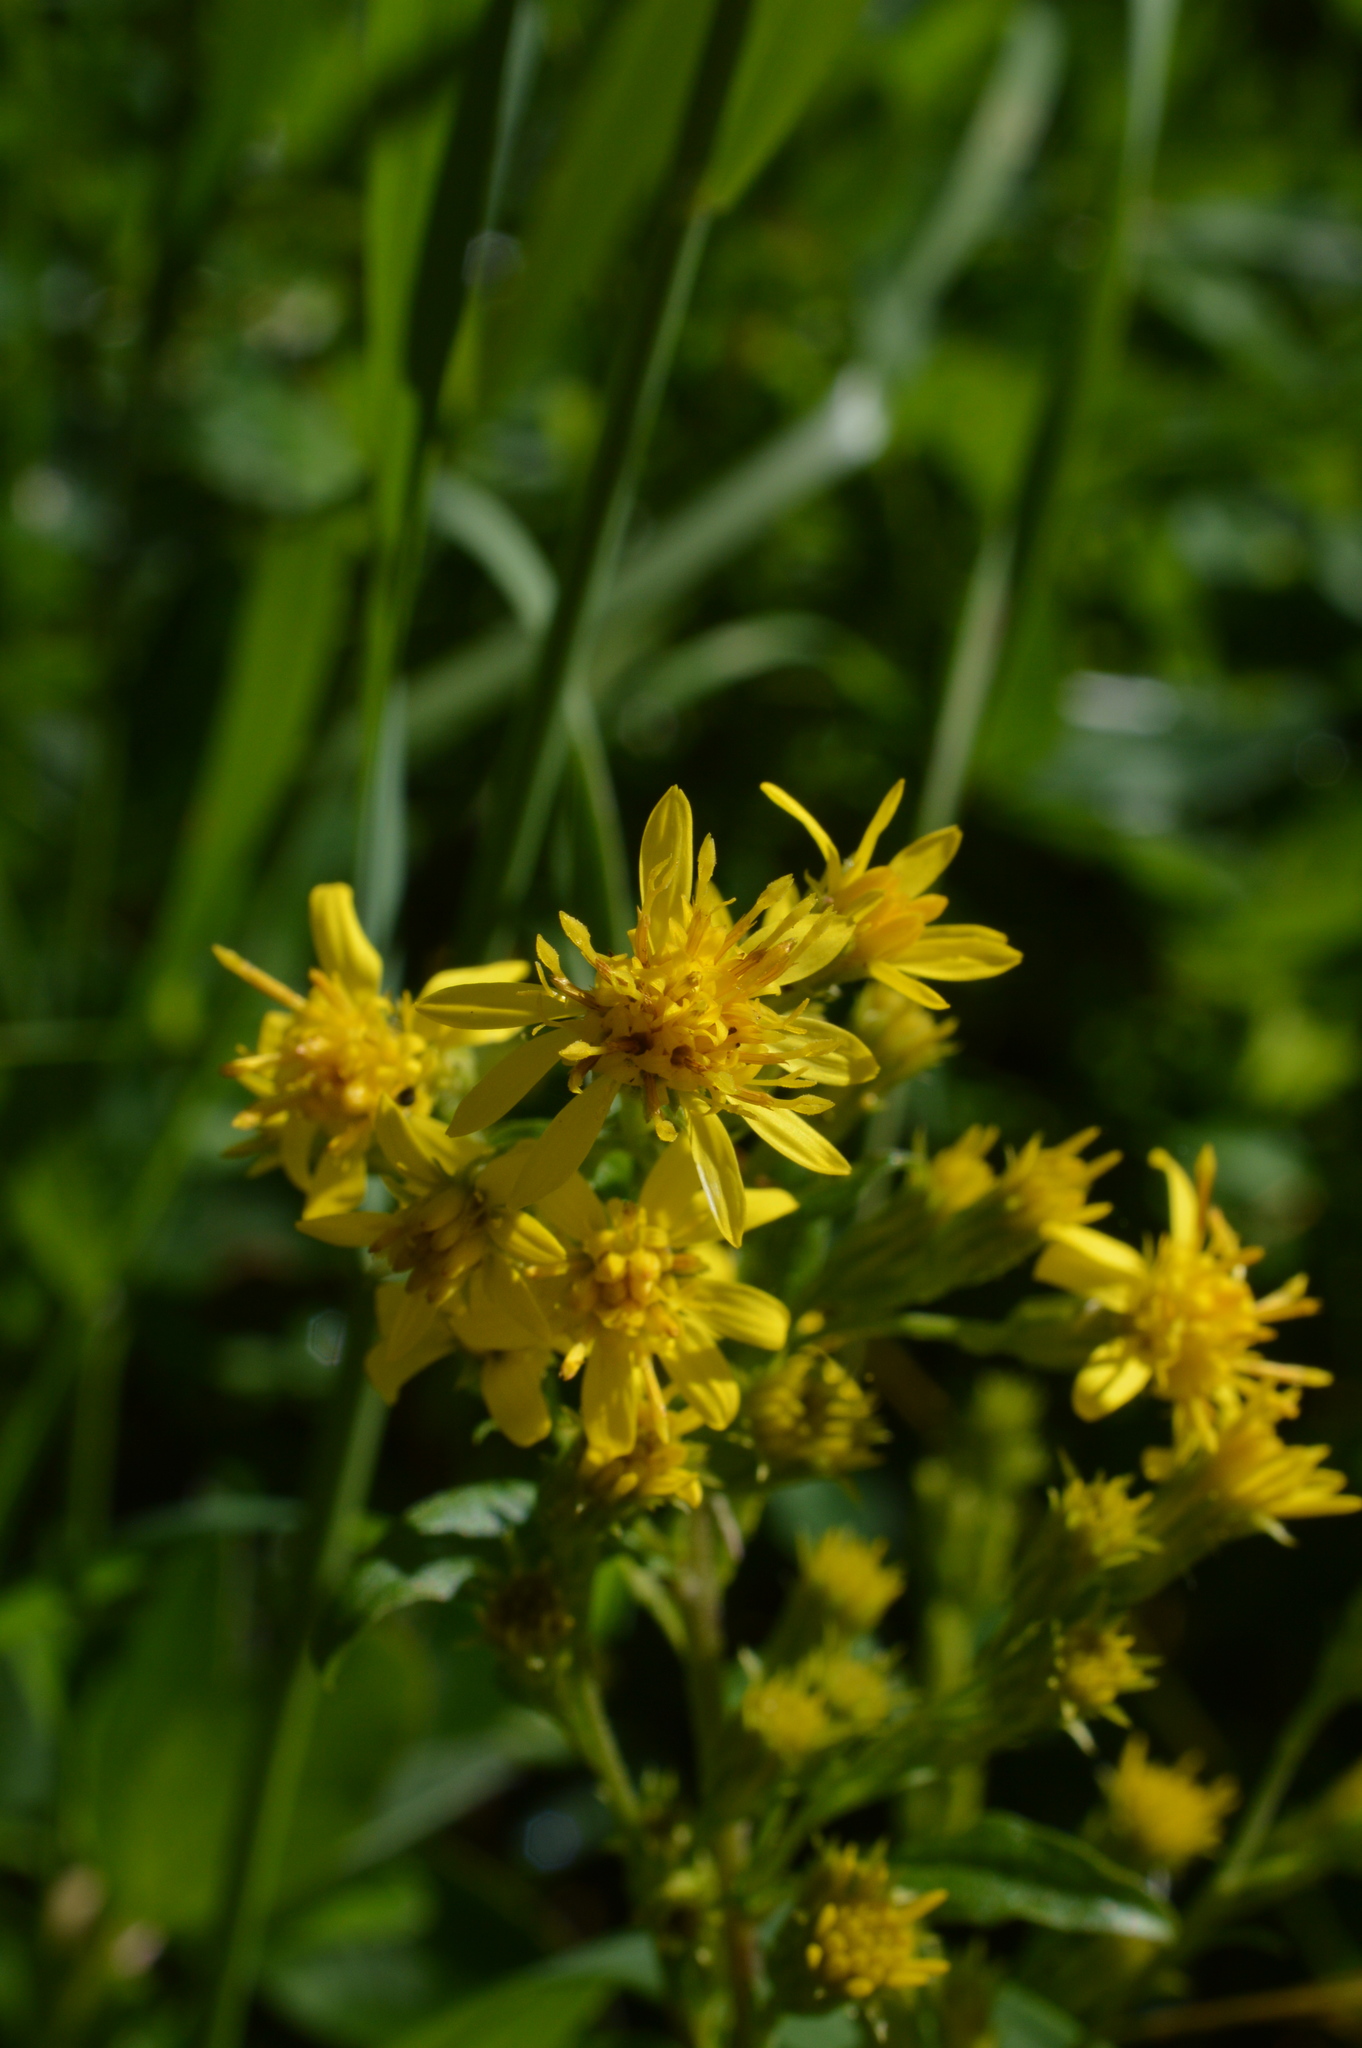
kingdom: Plantae
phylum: Tracheophyta
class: Magnoliopsida
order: Asterales
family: Asteraceae
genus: Solidago
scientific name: Solidago virgaurea
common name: Goldenrod
